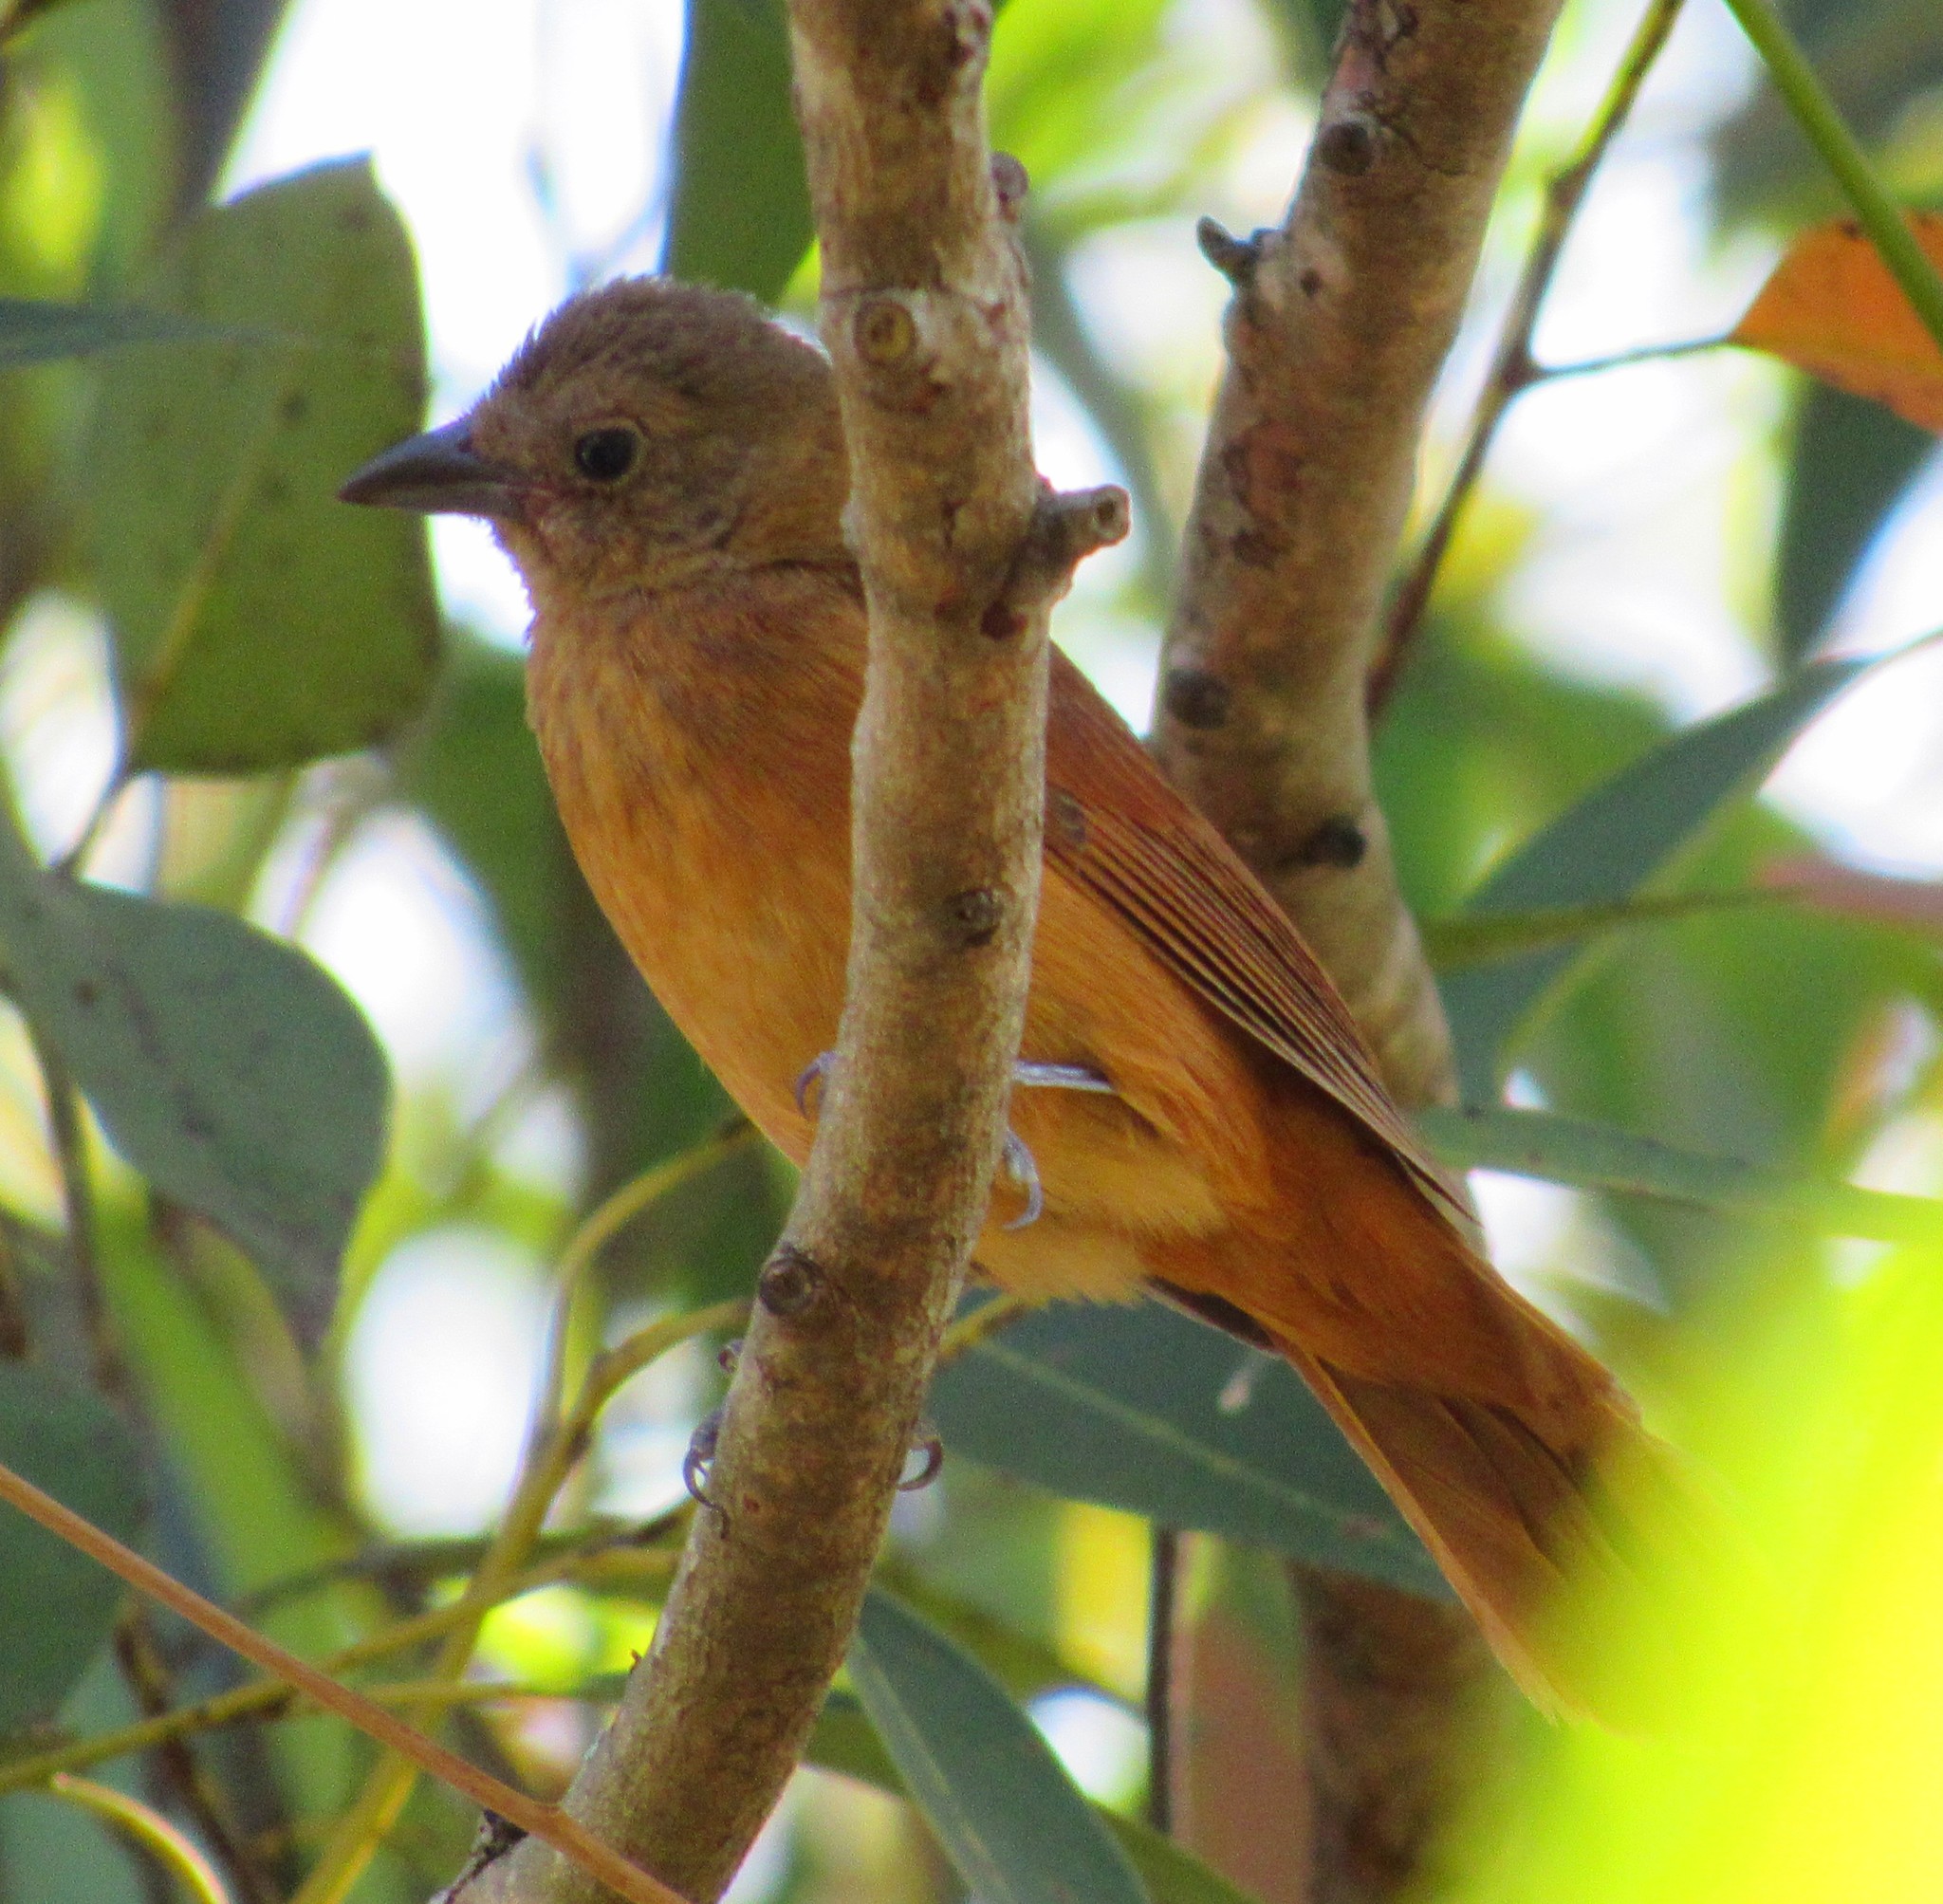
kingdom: Animalia
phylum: Chordata
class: Aves
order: Passeriformes
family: Thraupidae
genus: Tachyphonus
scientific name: Tachyphonus coronatus
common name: Ruby-crowned tanager
